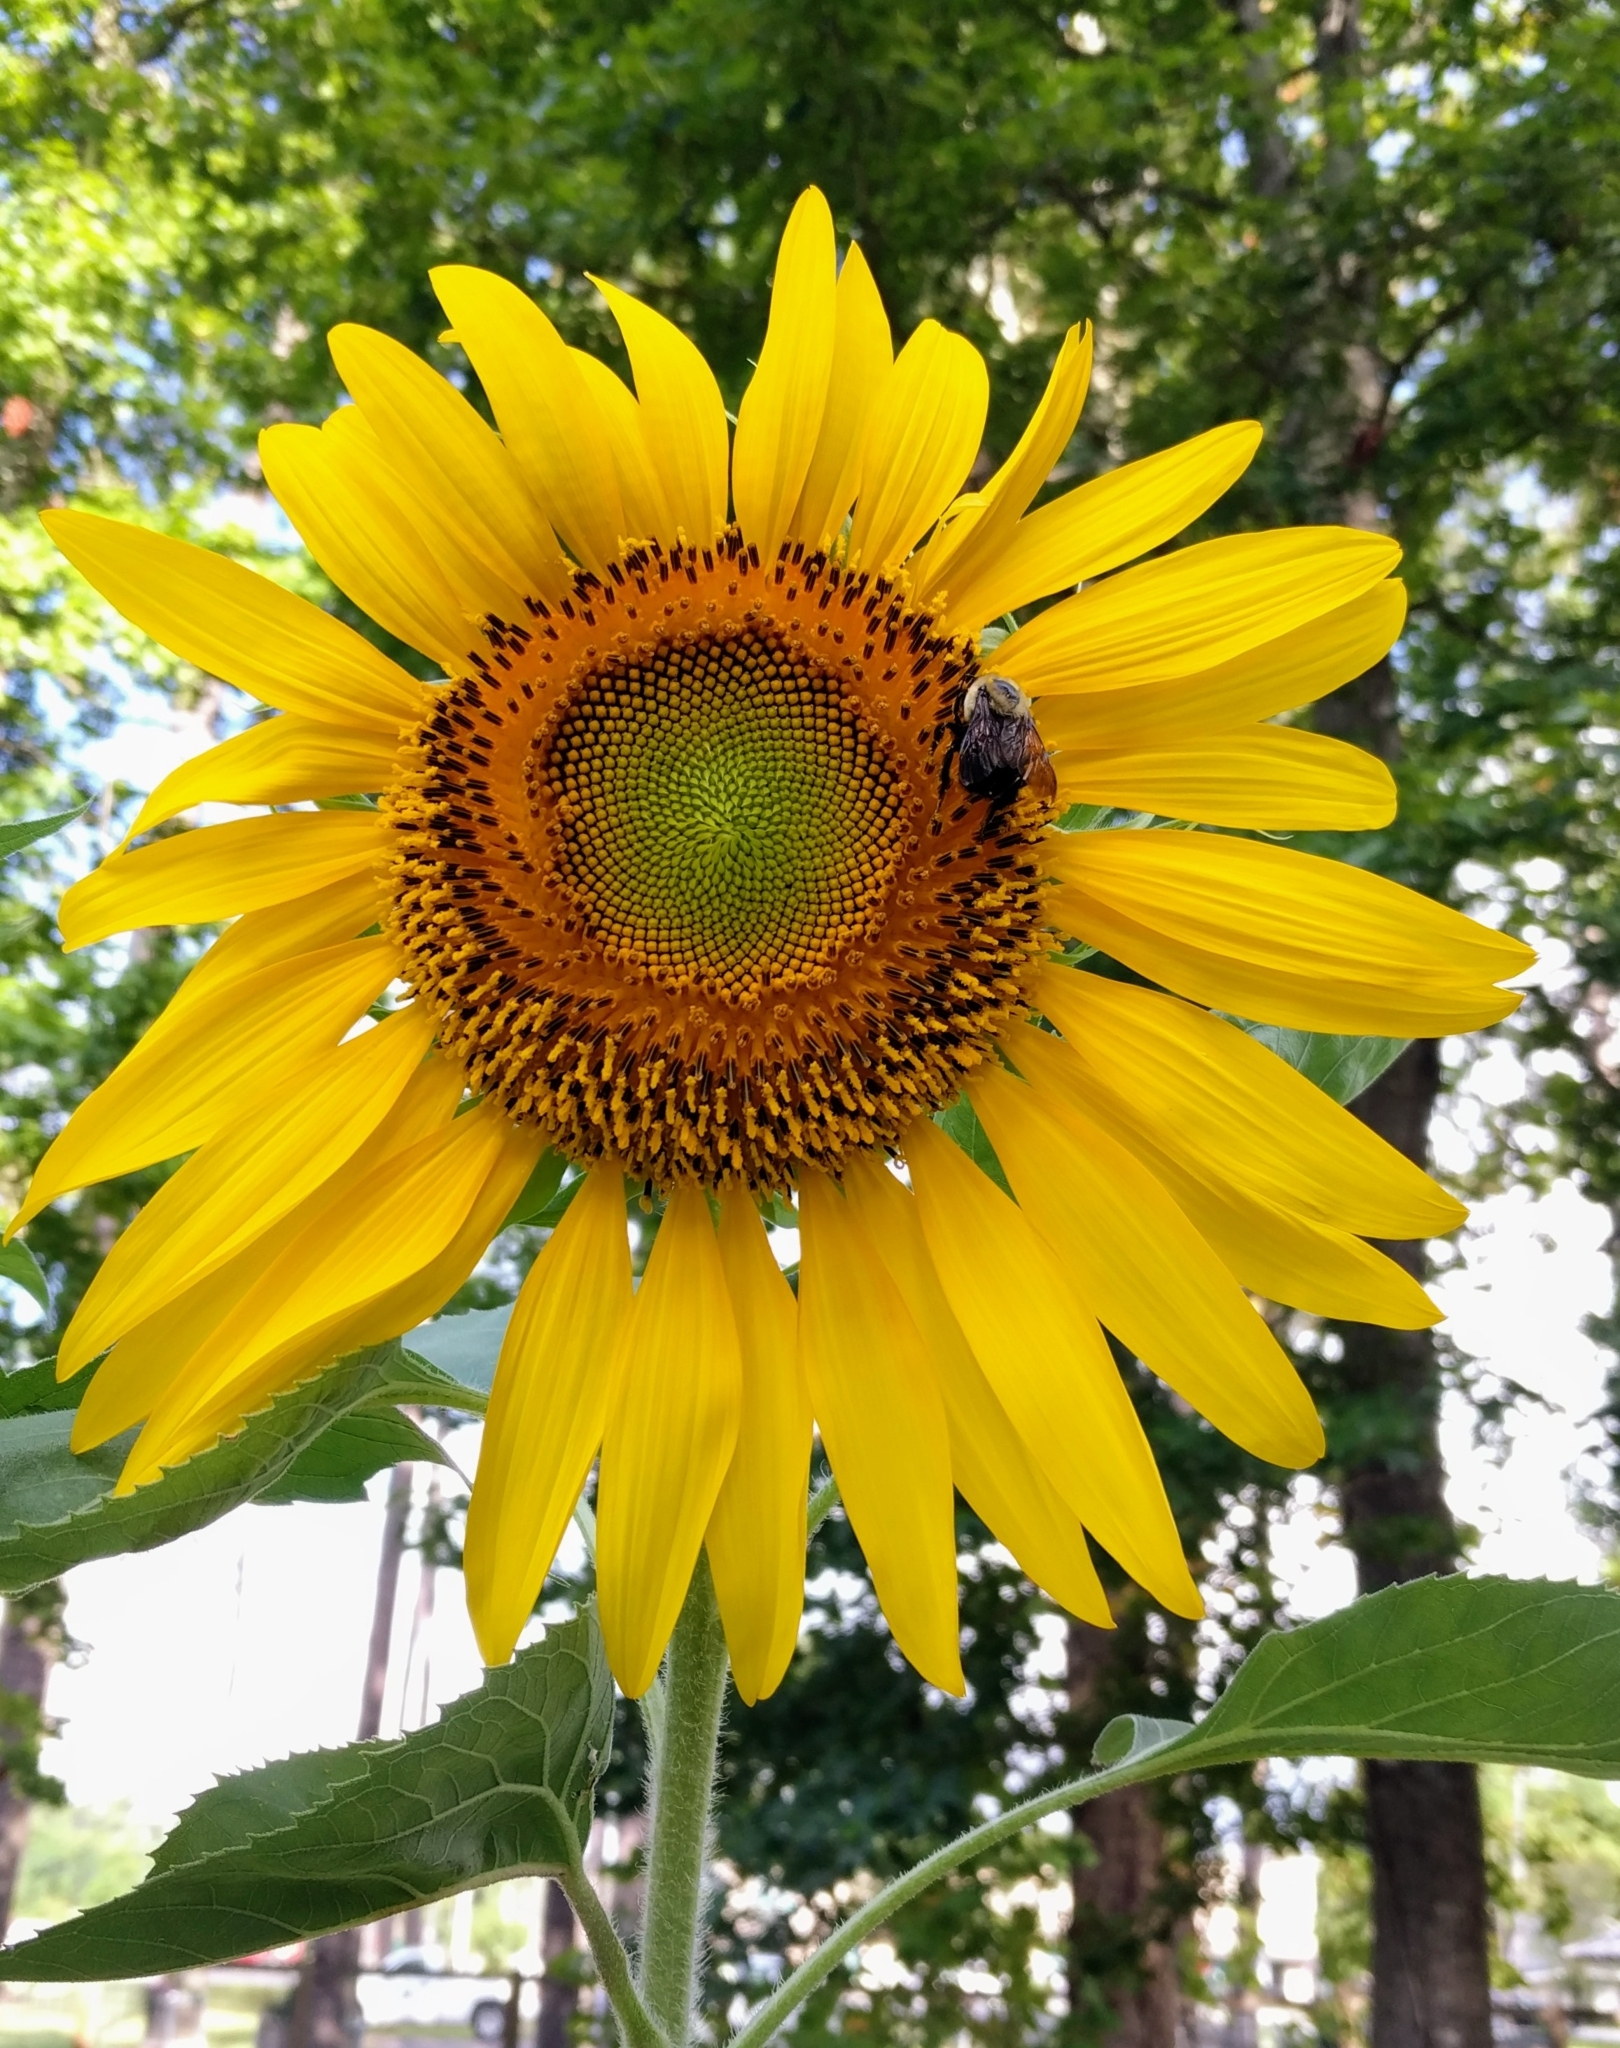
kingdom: Animalia
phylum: Arthropoda
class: Insecta
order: Hymenoptera
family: Apidae
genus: Bombus
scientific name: Bombus griseocollis
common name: Brown-belted bumble bee
